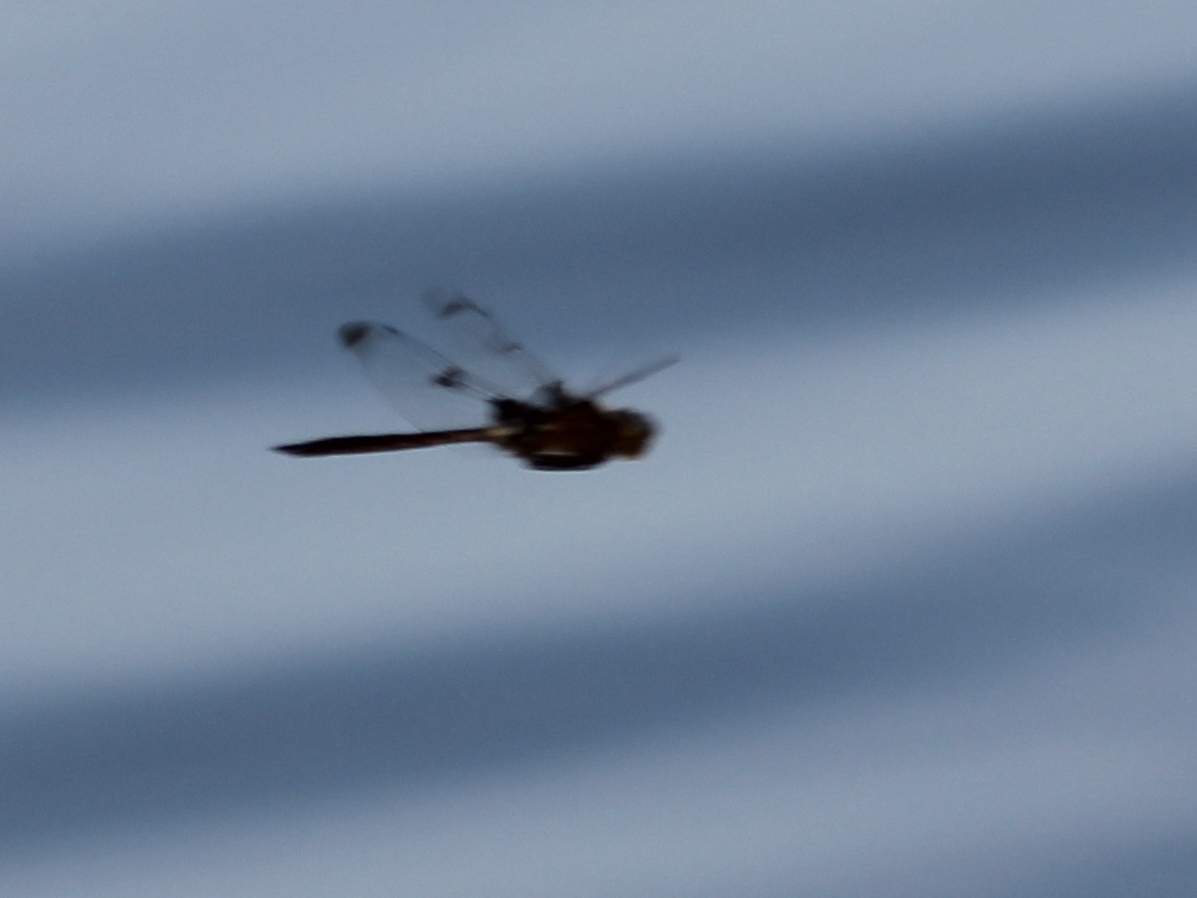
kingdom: Animalia
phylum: Arthropoda
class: Insecta
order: Odonata
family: Corduliidae
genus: Epitheca
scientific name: Epitheca princeps
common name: Prince baskettail
